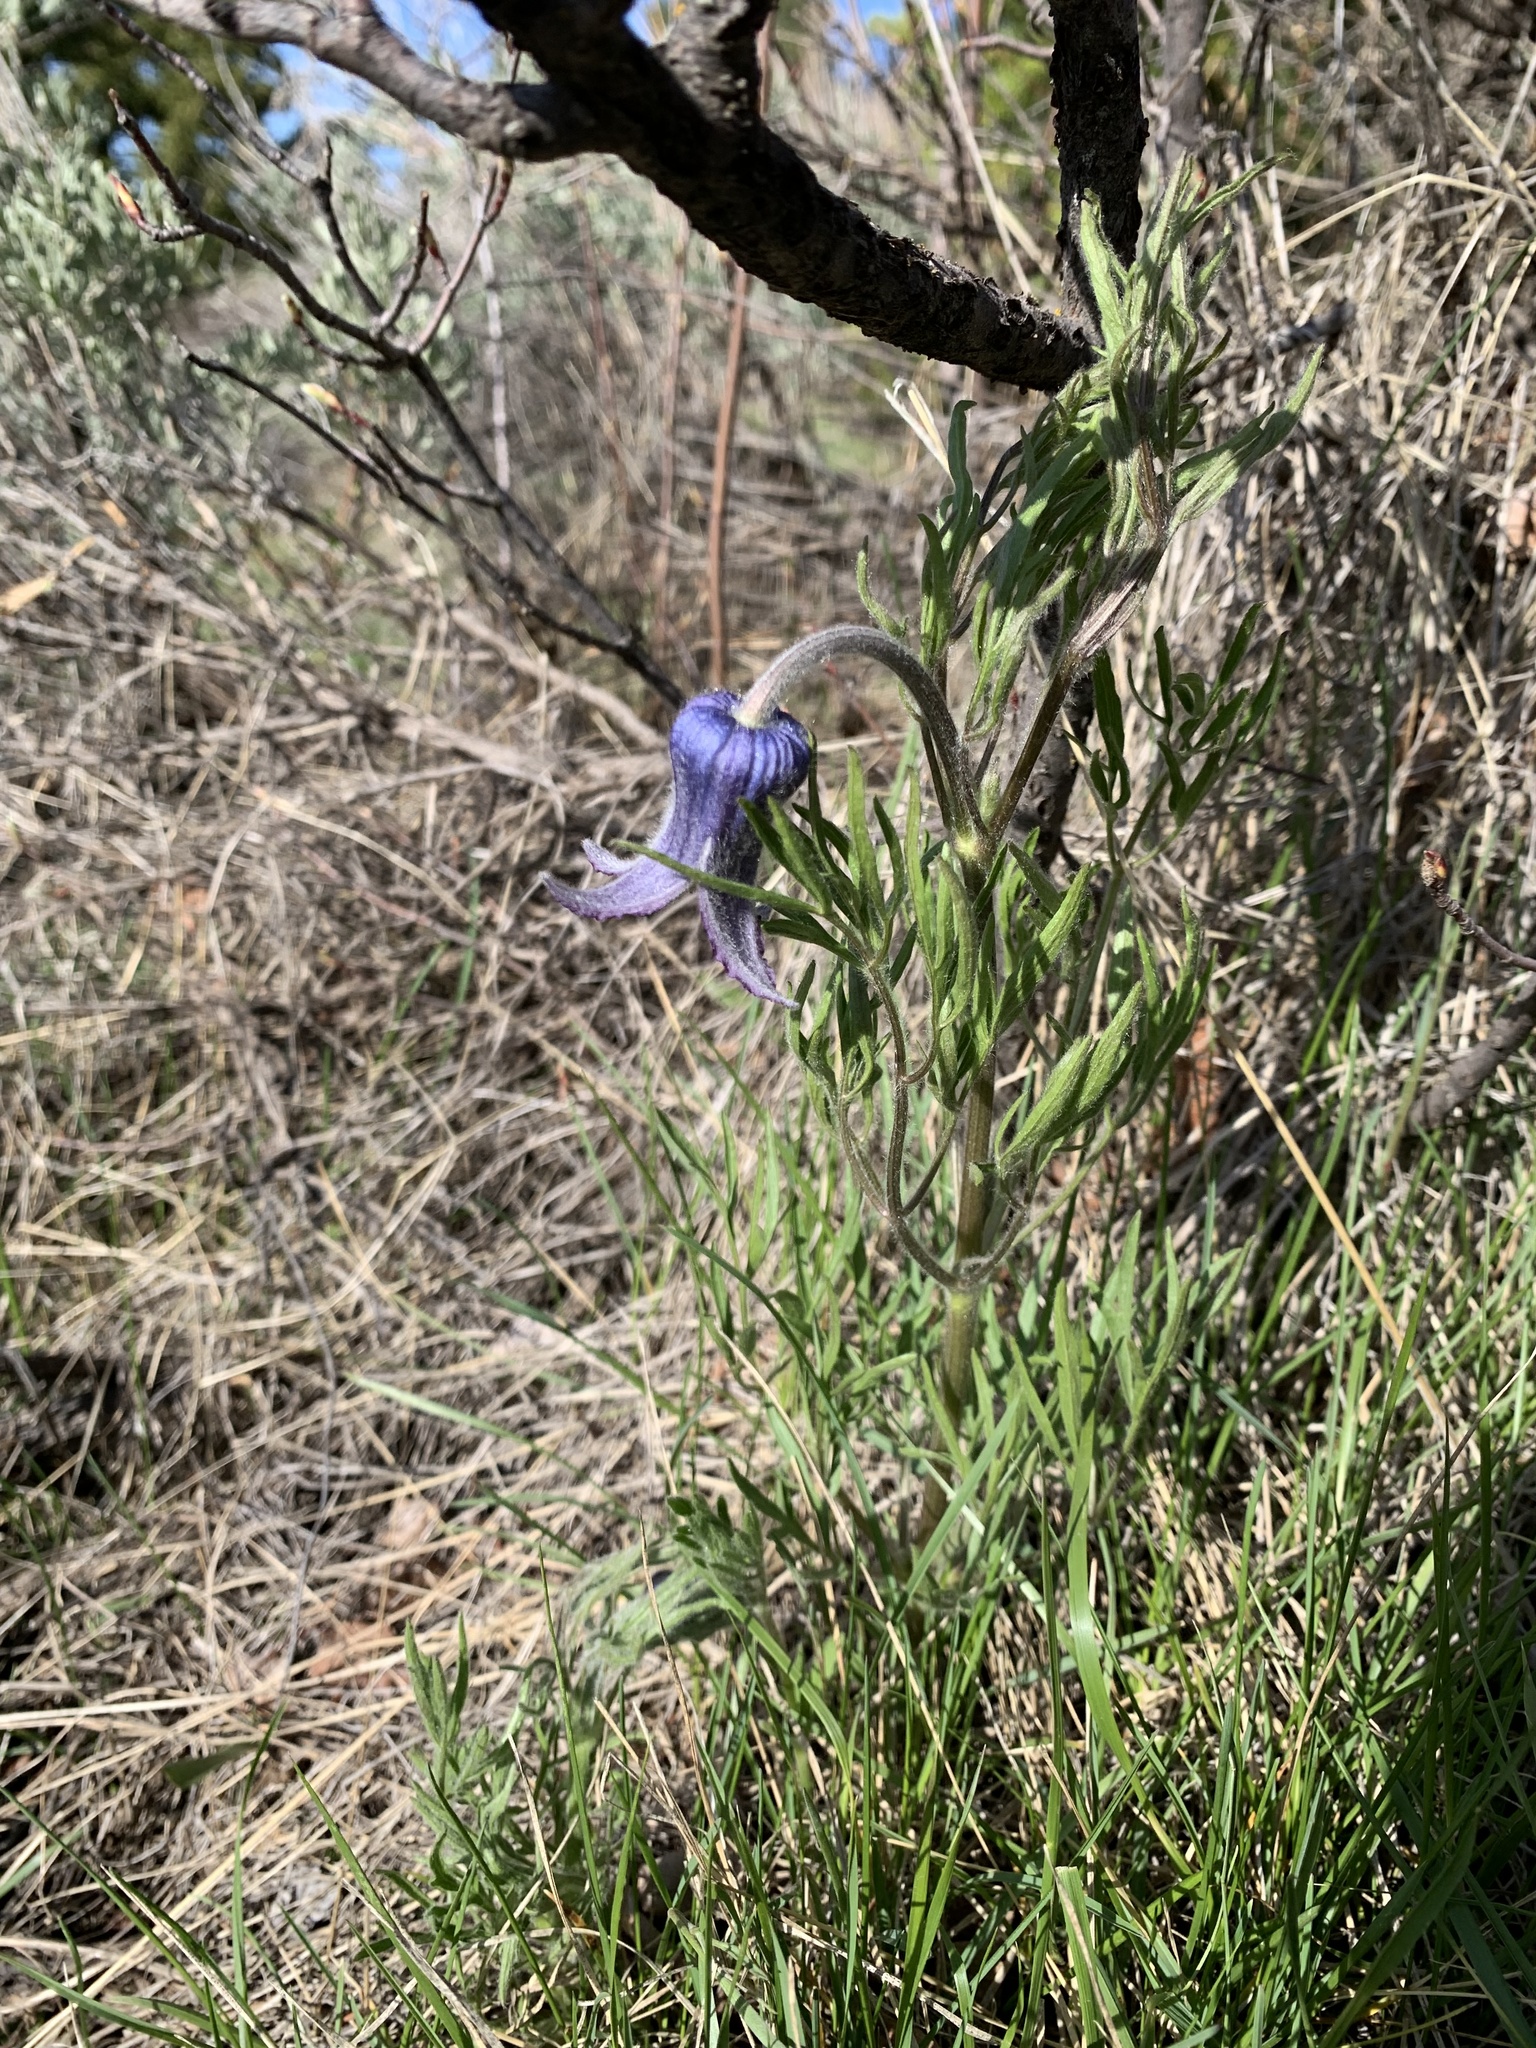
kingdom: Plantae
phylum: Tracheophyta
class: Magnoliopsida
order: Ranunculales
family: Ranunculaceae
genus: Clematis
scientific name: Clematis hirsutissima
